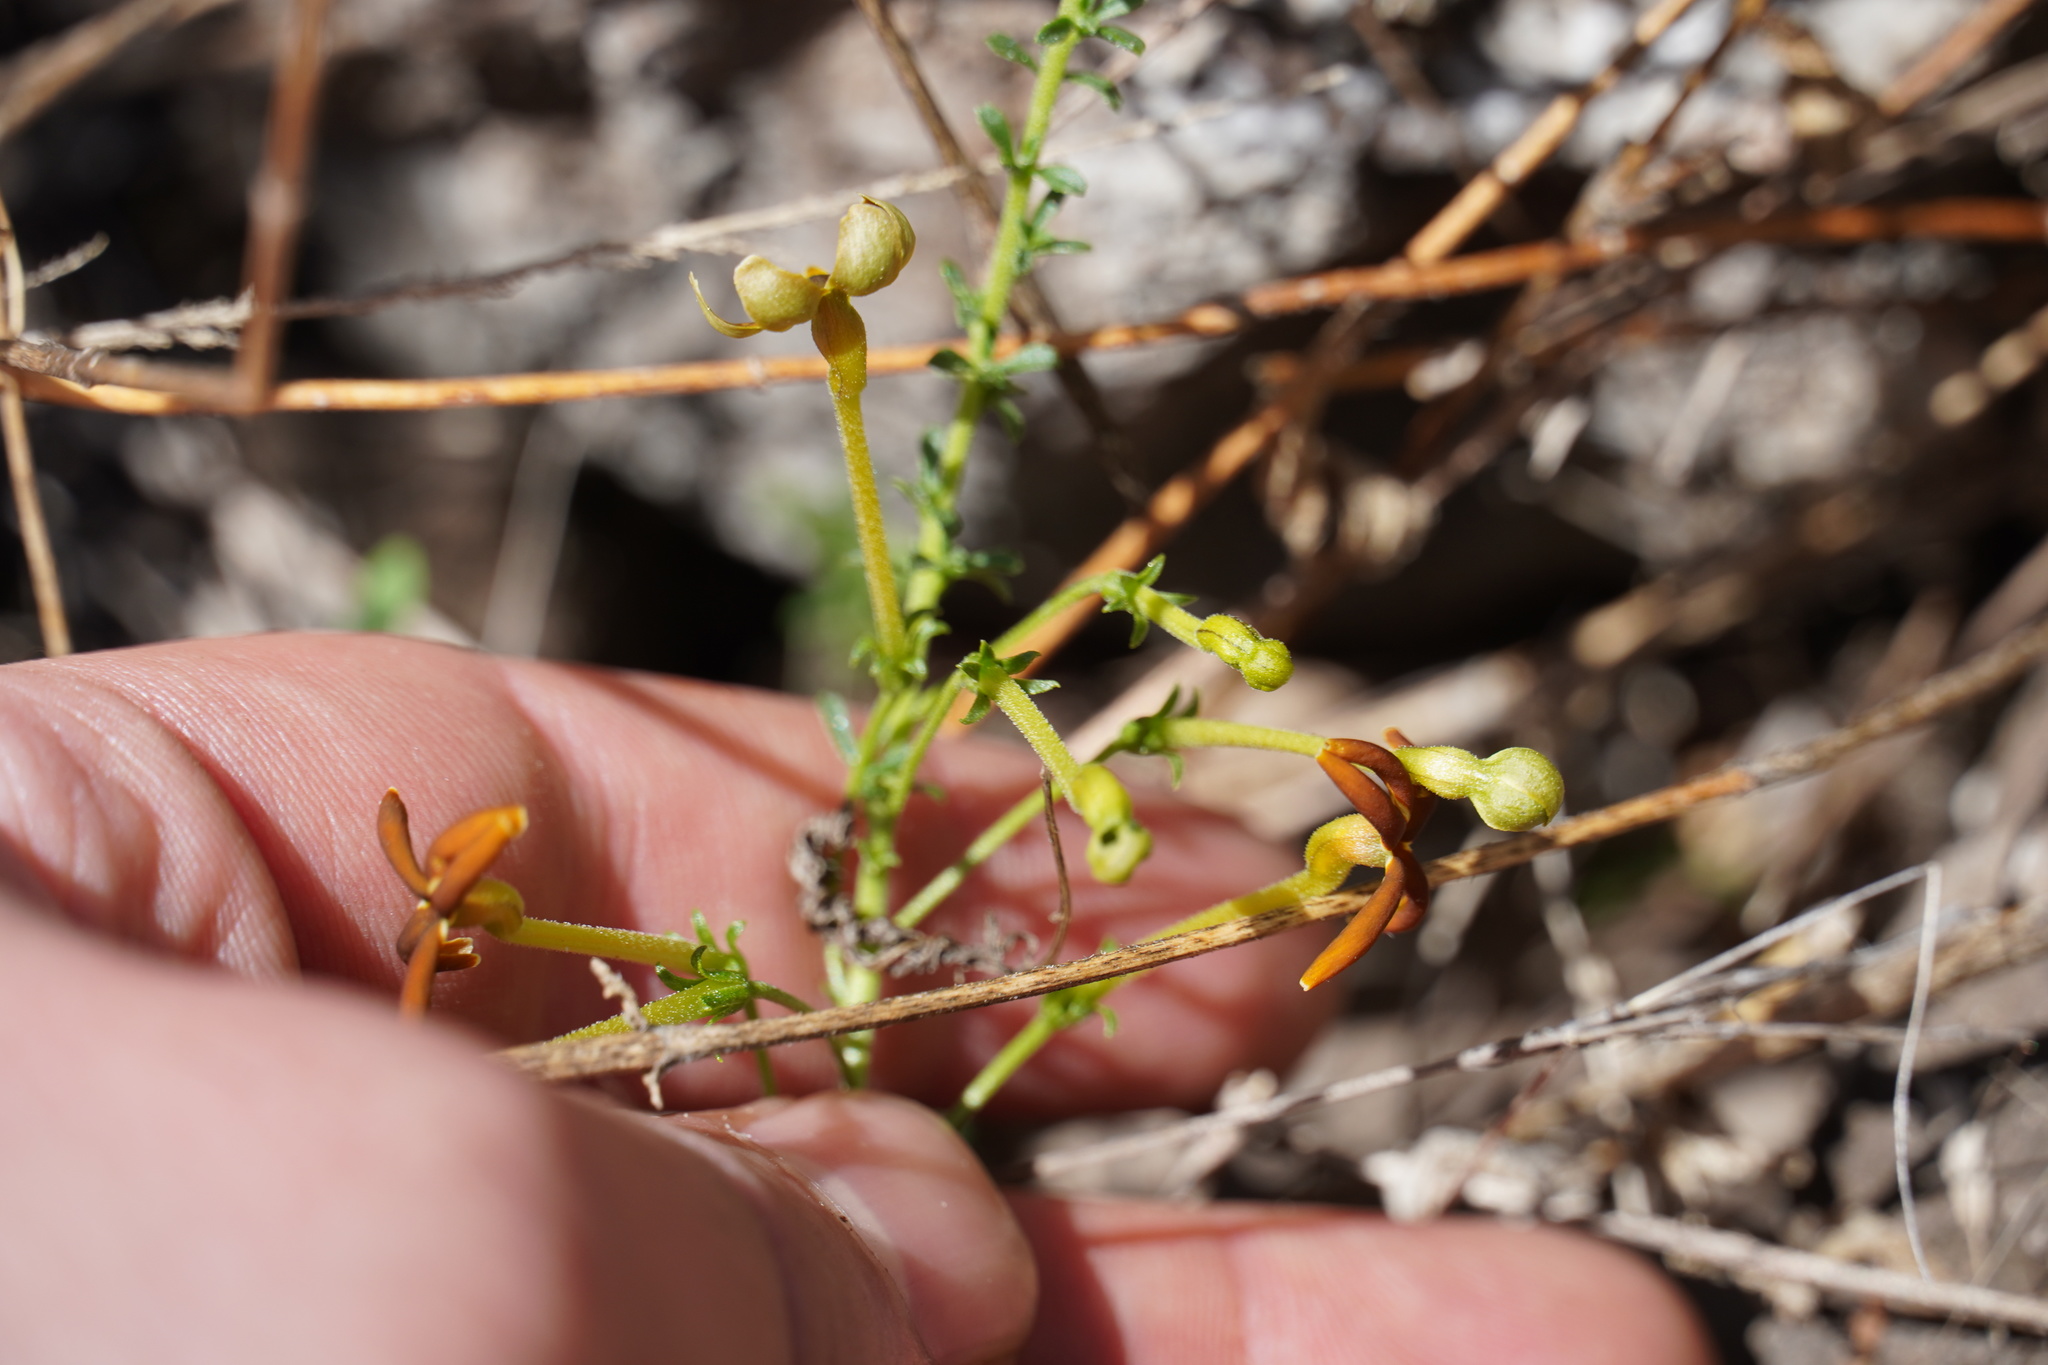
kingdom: Plantae
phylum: Tracheophyta
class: Magnoliopsida
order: Lamiales
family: Scrophulariaceae
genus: Jamesbrittenia
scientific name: Jamesbrittenia burkeana
